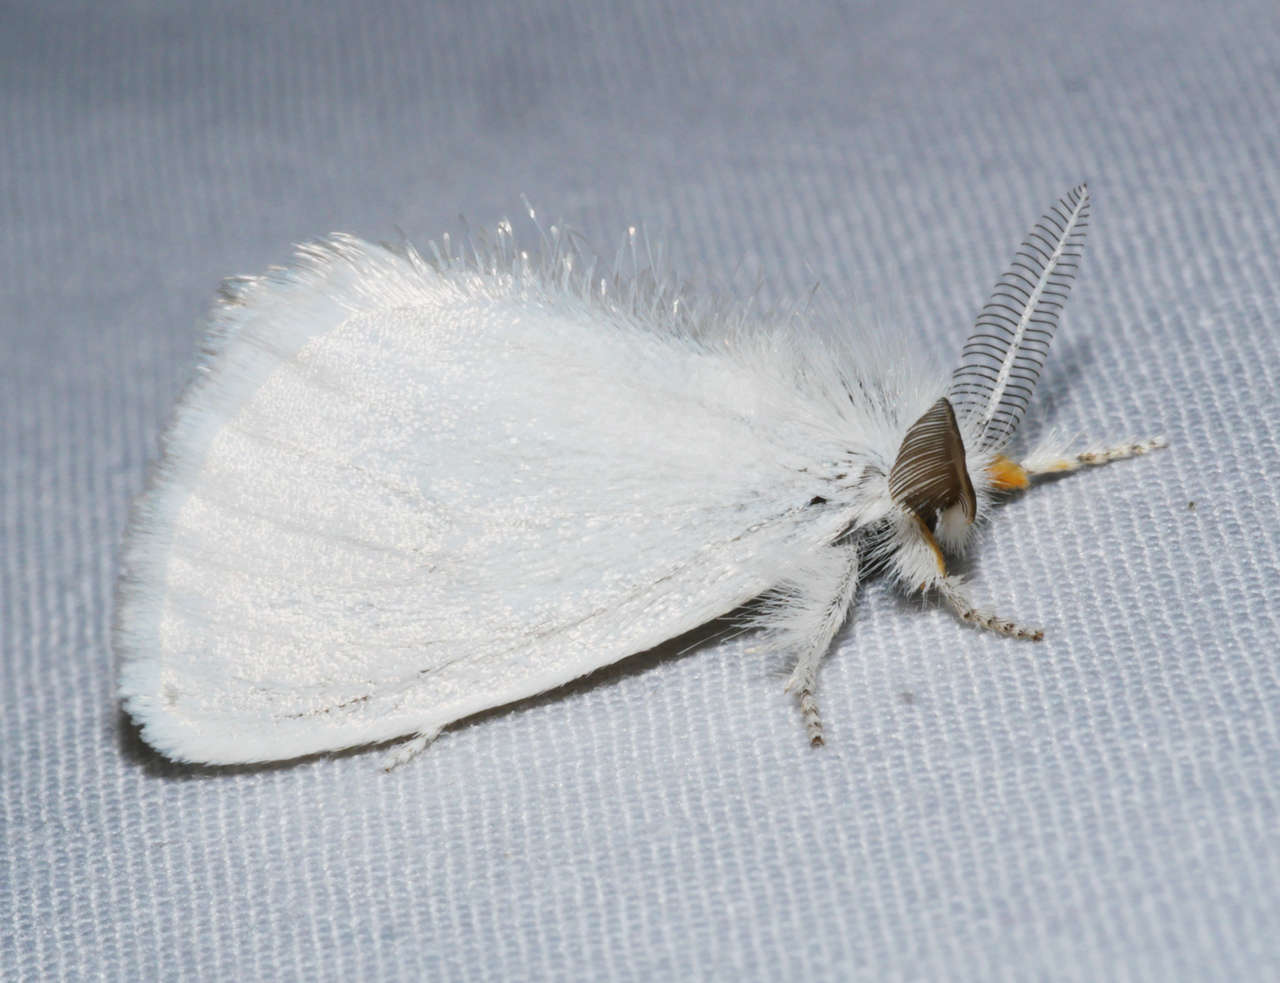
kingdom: Animalia
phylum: Arthropoda
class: Insecta
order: Lepidoptera
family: Erebidae
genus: Euproctis
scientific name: Euproctis melanosoma
